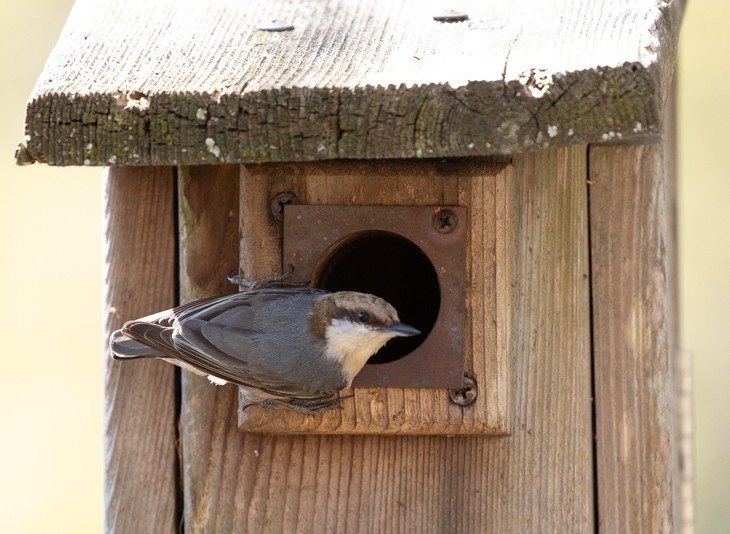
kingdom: Animalia
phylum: Chordata
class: Aves
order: Passeriformes
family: Sittidae
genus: Sitta
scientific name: Sitta pusilla
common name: Brown-headed nuthatch
